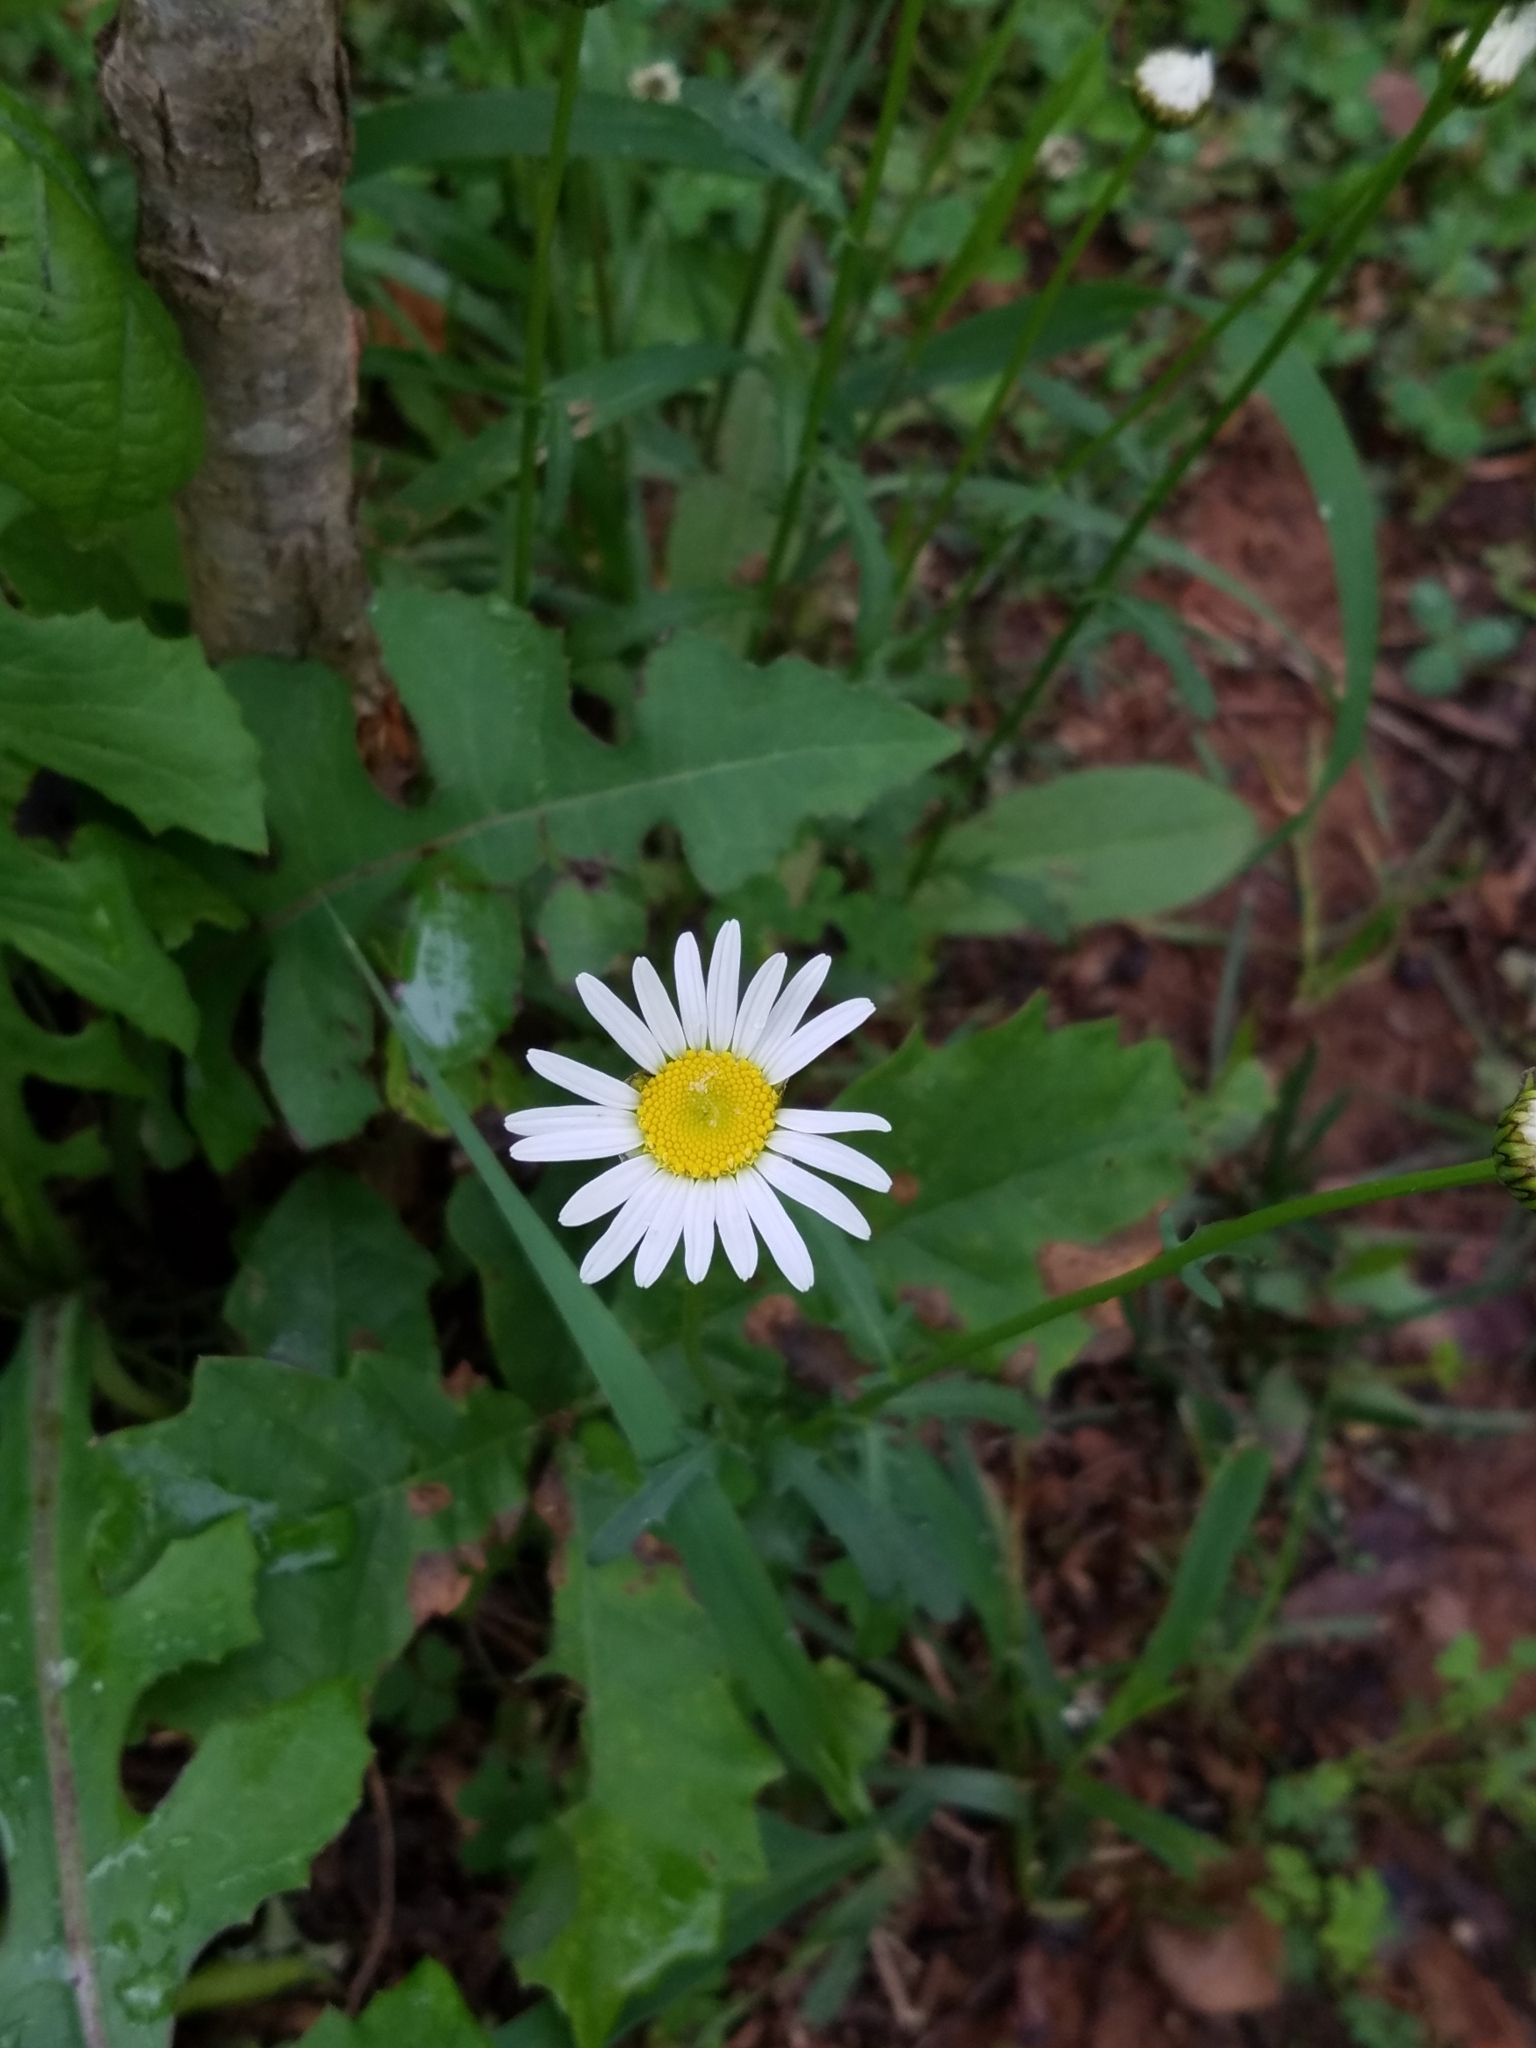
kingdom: Plantae
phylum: Tracheophyta
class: Magnoliopsida
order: Asterales
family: Asteraceae
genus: Leucanthemum
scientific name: Leucanthemum vulgare
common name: Oxeye daisy
